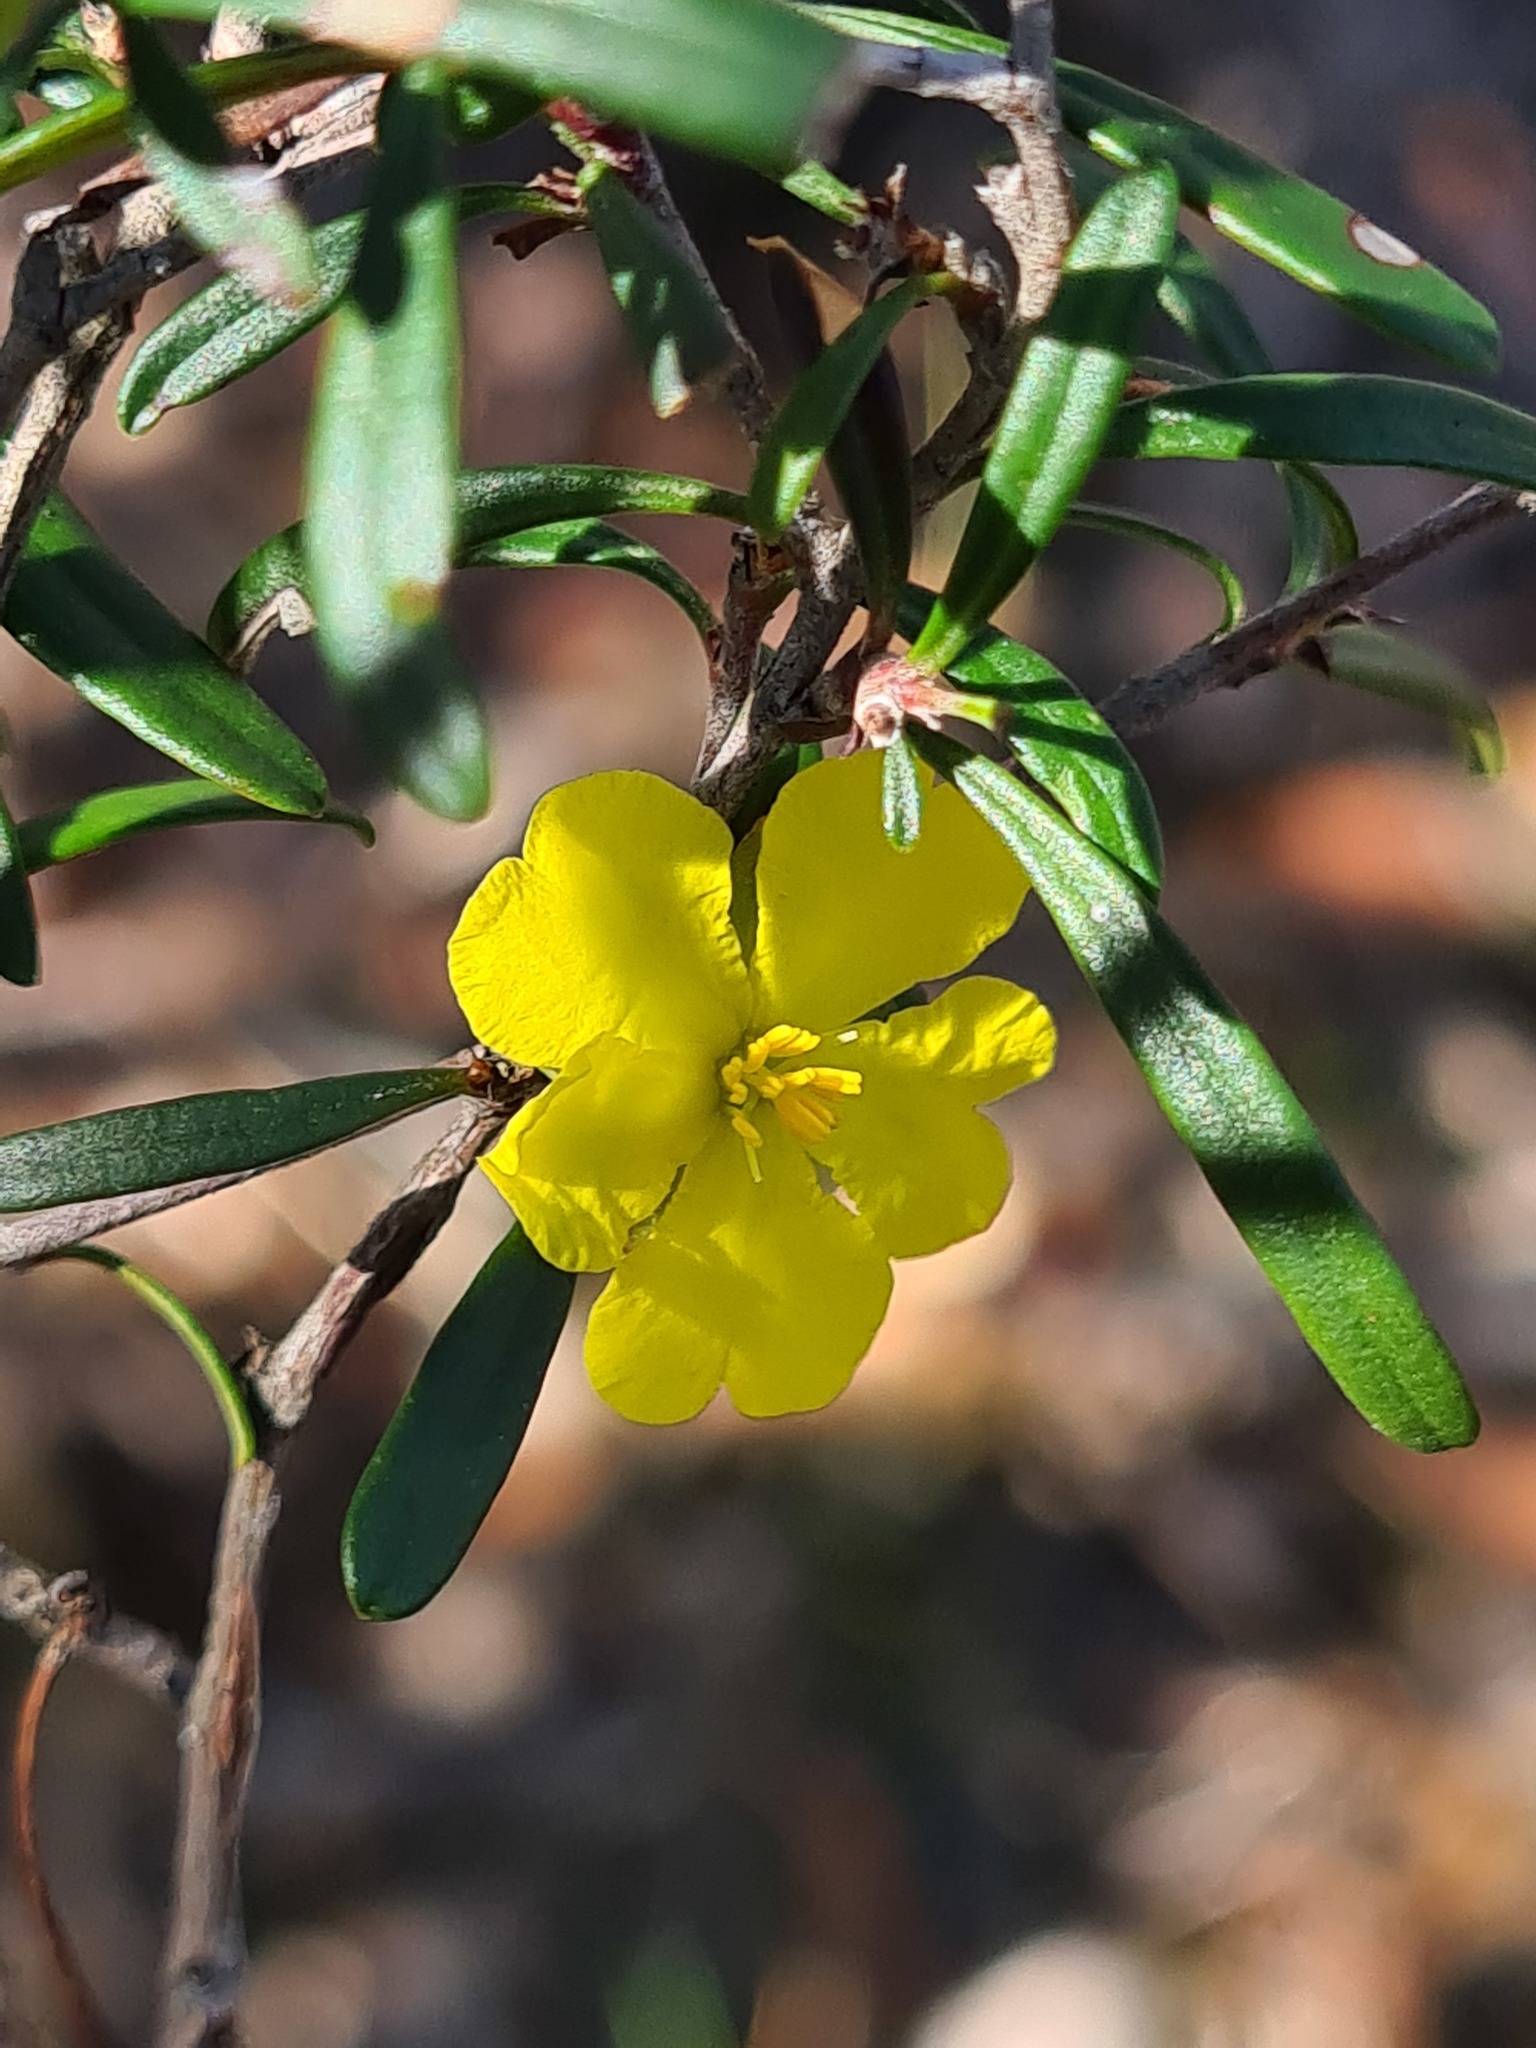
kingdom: Plantae
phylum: Tracheophyta
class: Magnoliopsida
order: Dilleniales
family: Dilleniaceae
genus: Hibbertia
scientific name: Hibbertia linearis
